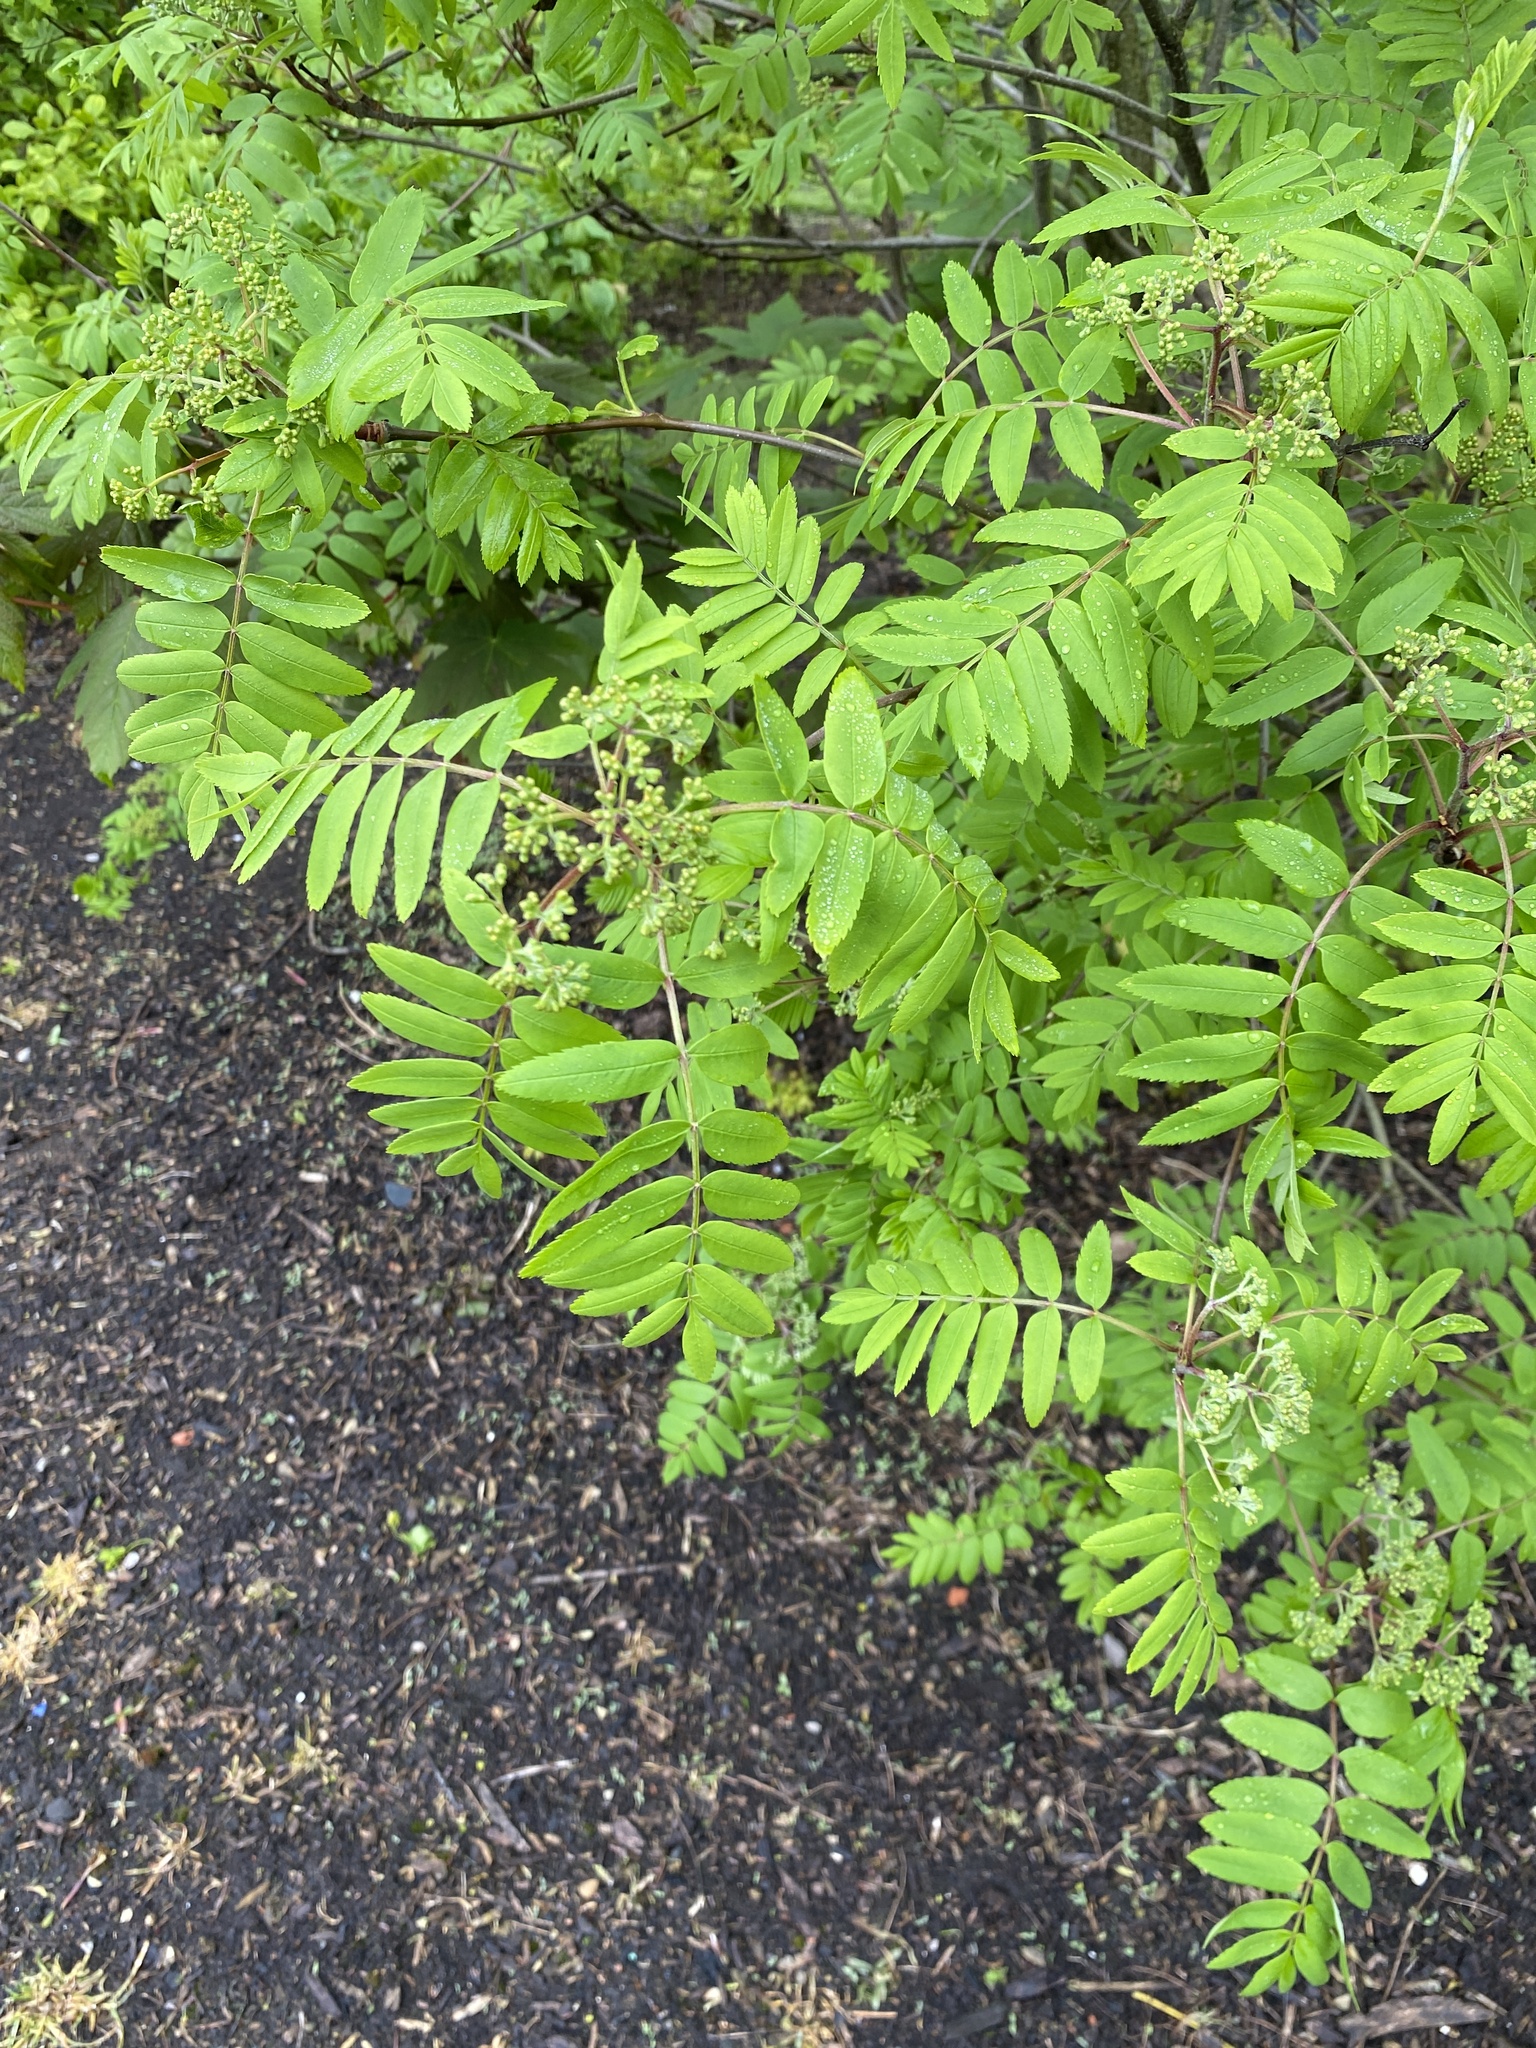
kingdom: Plantae
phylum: Tracheophyta
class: Magnoliopsida
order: Rosales
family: Rosaceae
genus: Sorbus
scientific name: Sorbus aucuparia
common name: Rowan
